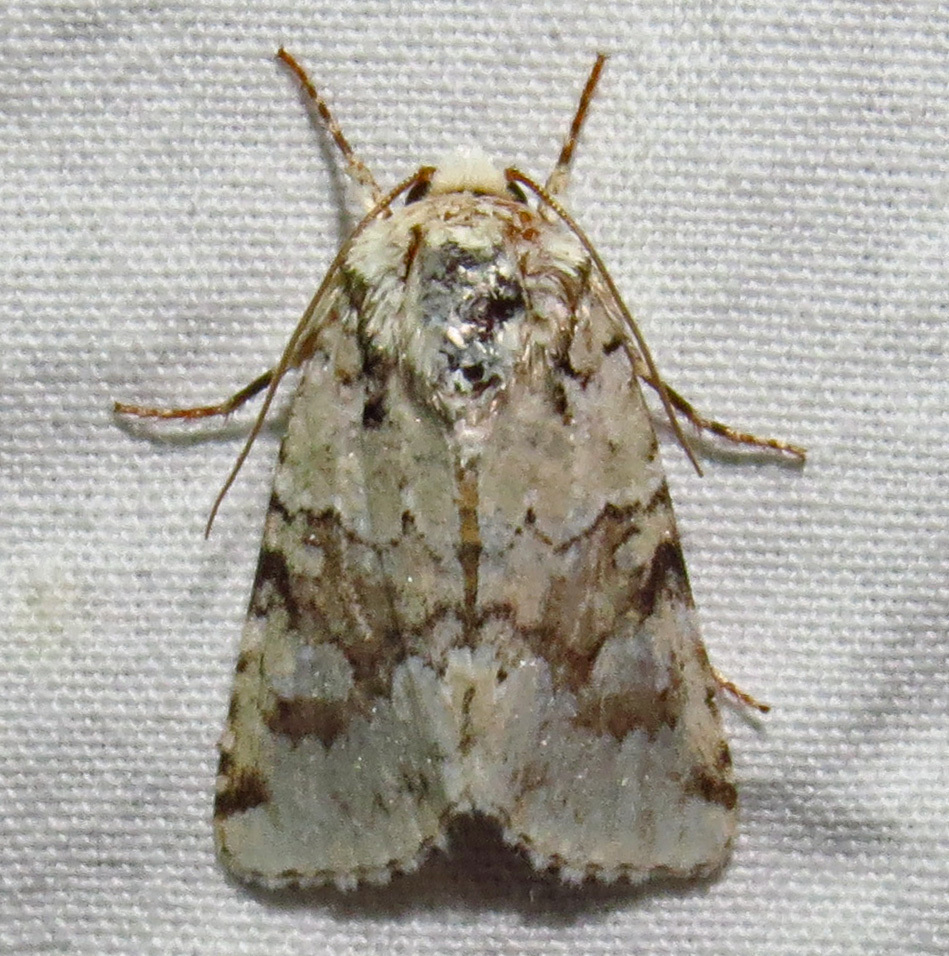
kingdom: Animalia
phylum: Arthropoda
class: Insecta
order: Lepidoptera
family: Noctuidae
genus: Lacinipolia
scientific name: Lacinipolia laudabilis
